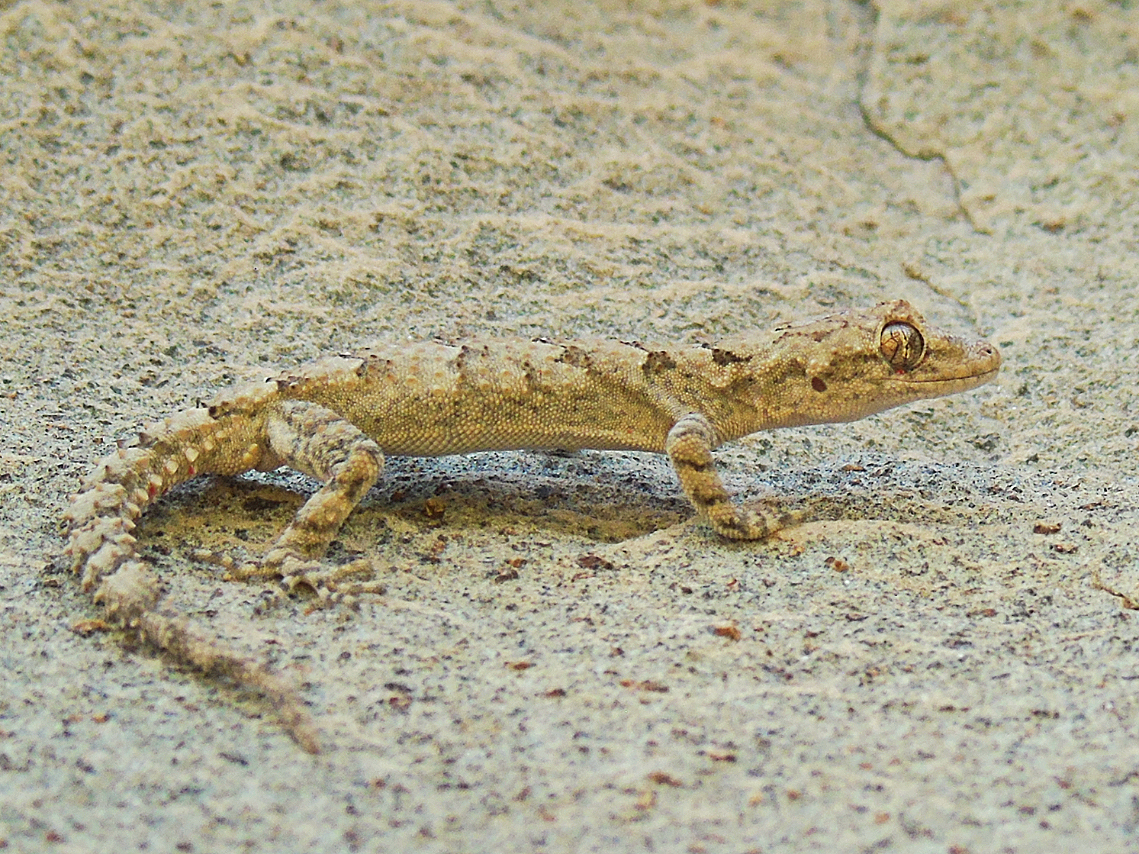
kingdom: Animalia
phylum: Chordata
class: Squamata
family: Gekkonidae
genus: Mediodactylus
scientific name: Mediodactylus heterocercus
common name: Asia minor thin-toed gecko
